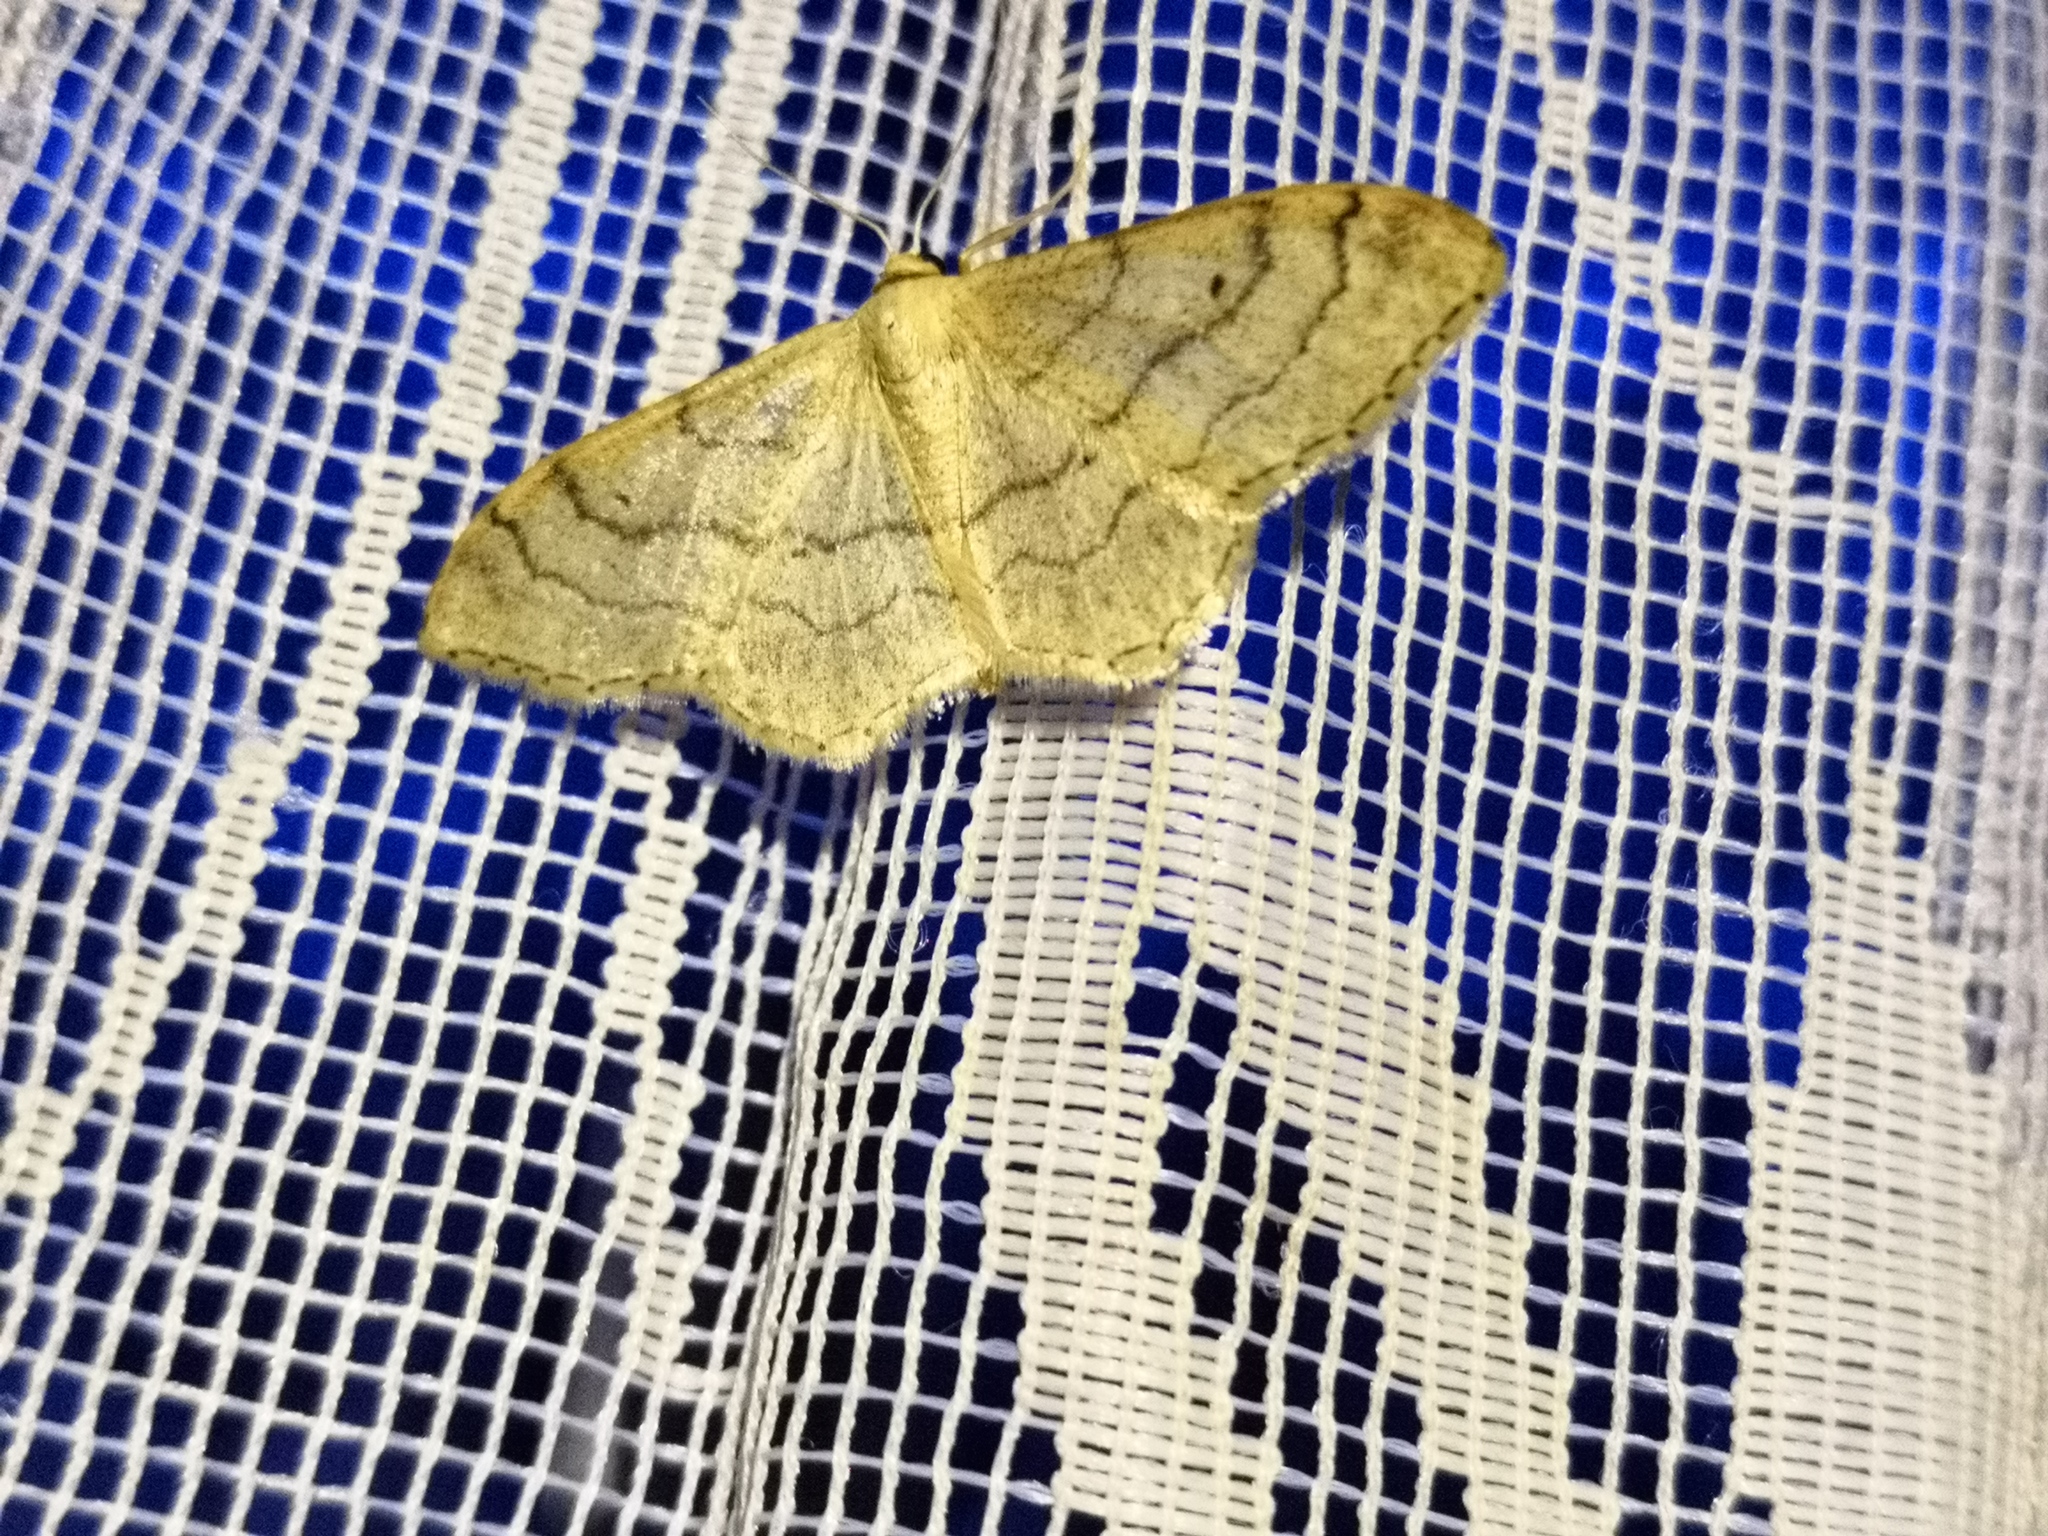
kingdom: Animalia
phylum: Arthropoda
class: Insecta
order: Lepidoptera
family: Geometridae
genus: Idaea
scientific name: Idaea aversata
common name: Riband wave
